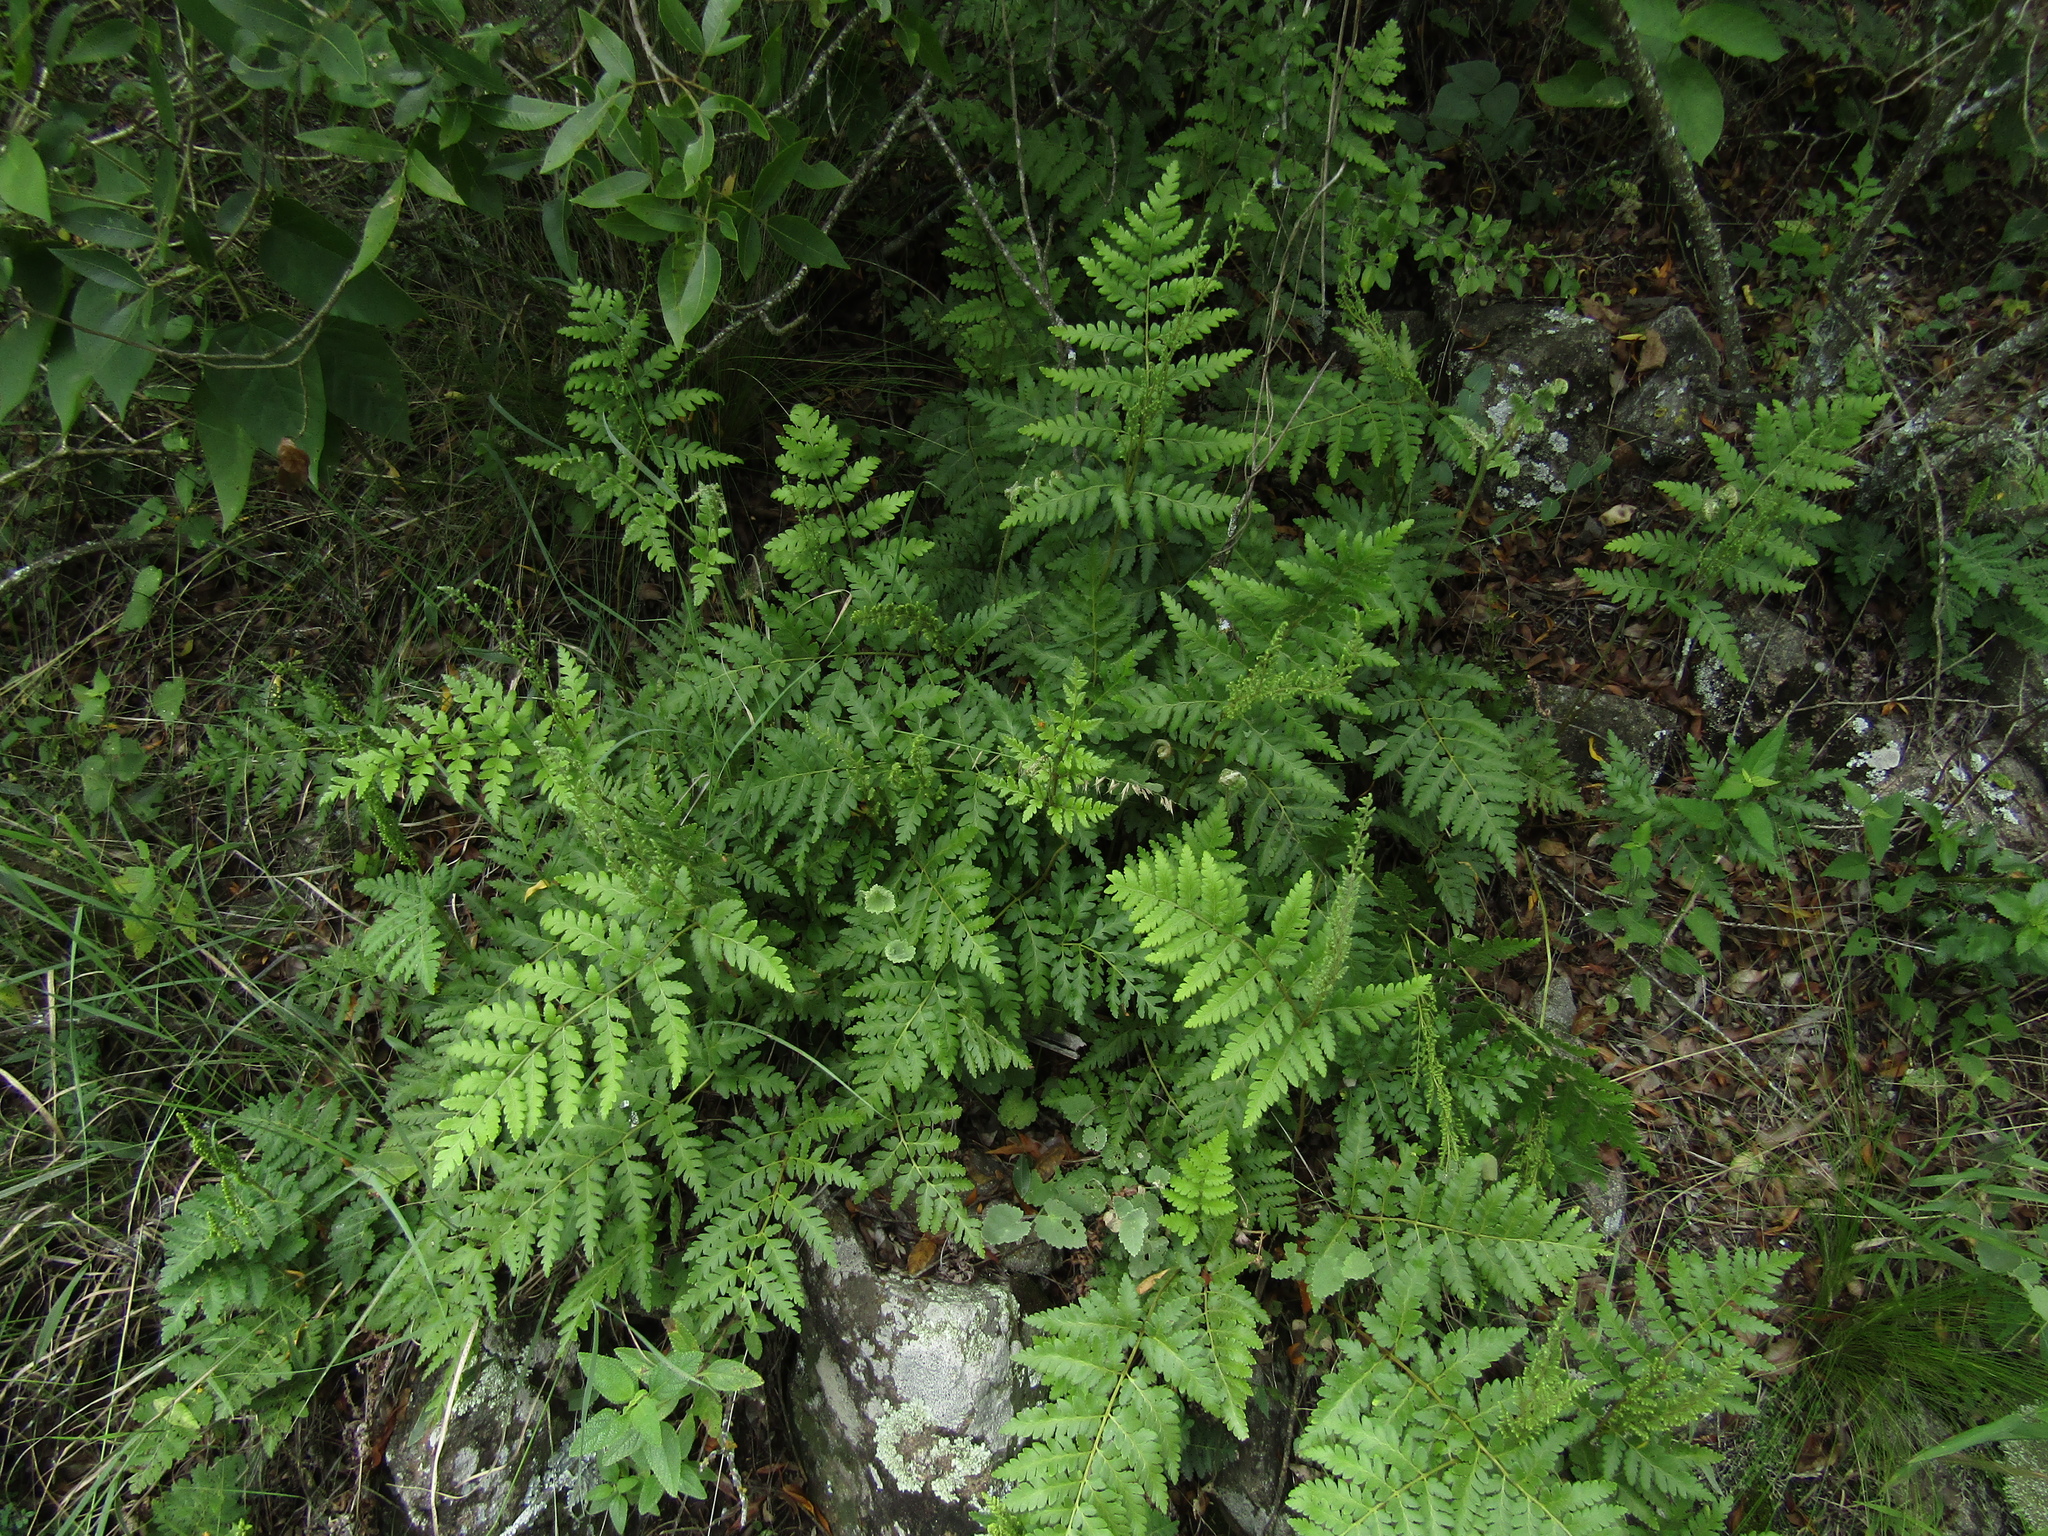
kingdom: Plantae
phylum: Tracheophyta
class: Polypodiopsida
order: Schizaeales
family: Anemiaceae
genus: Anemia
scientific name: Anemia tomentosa
